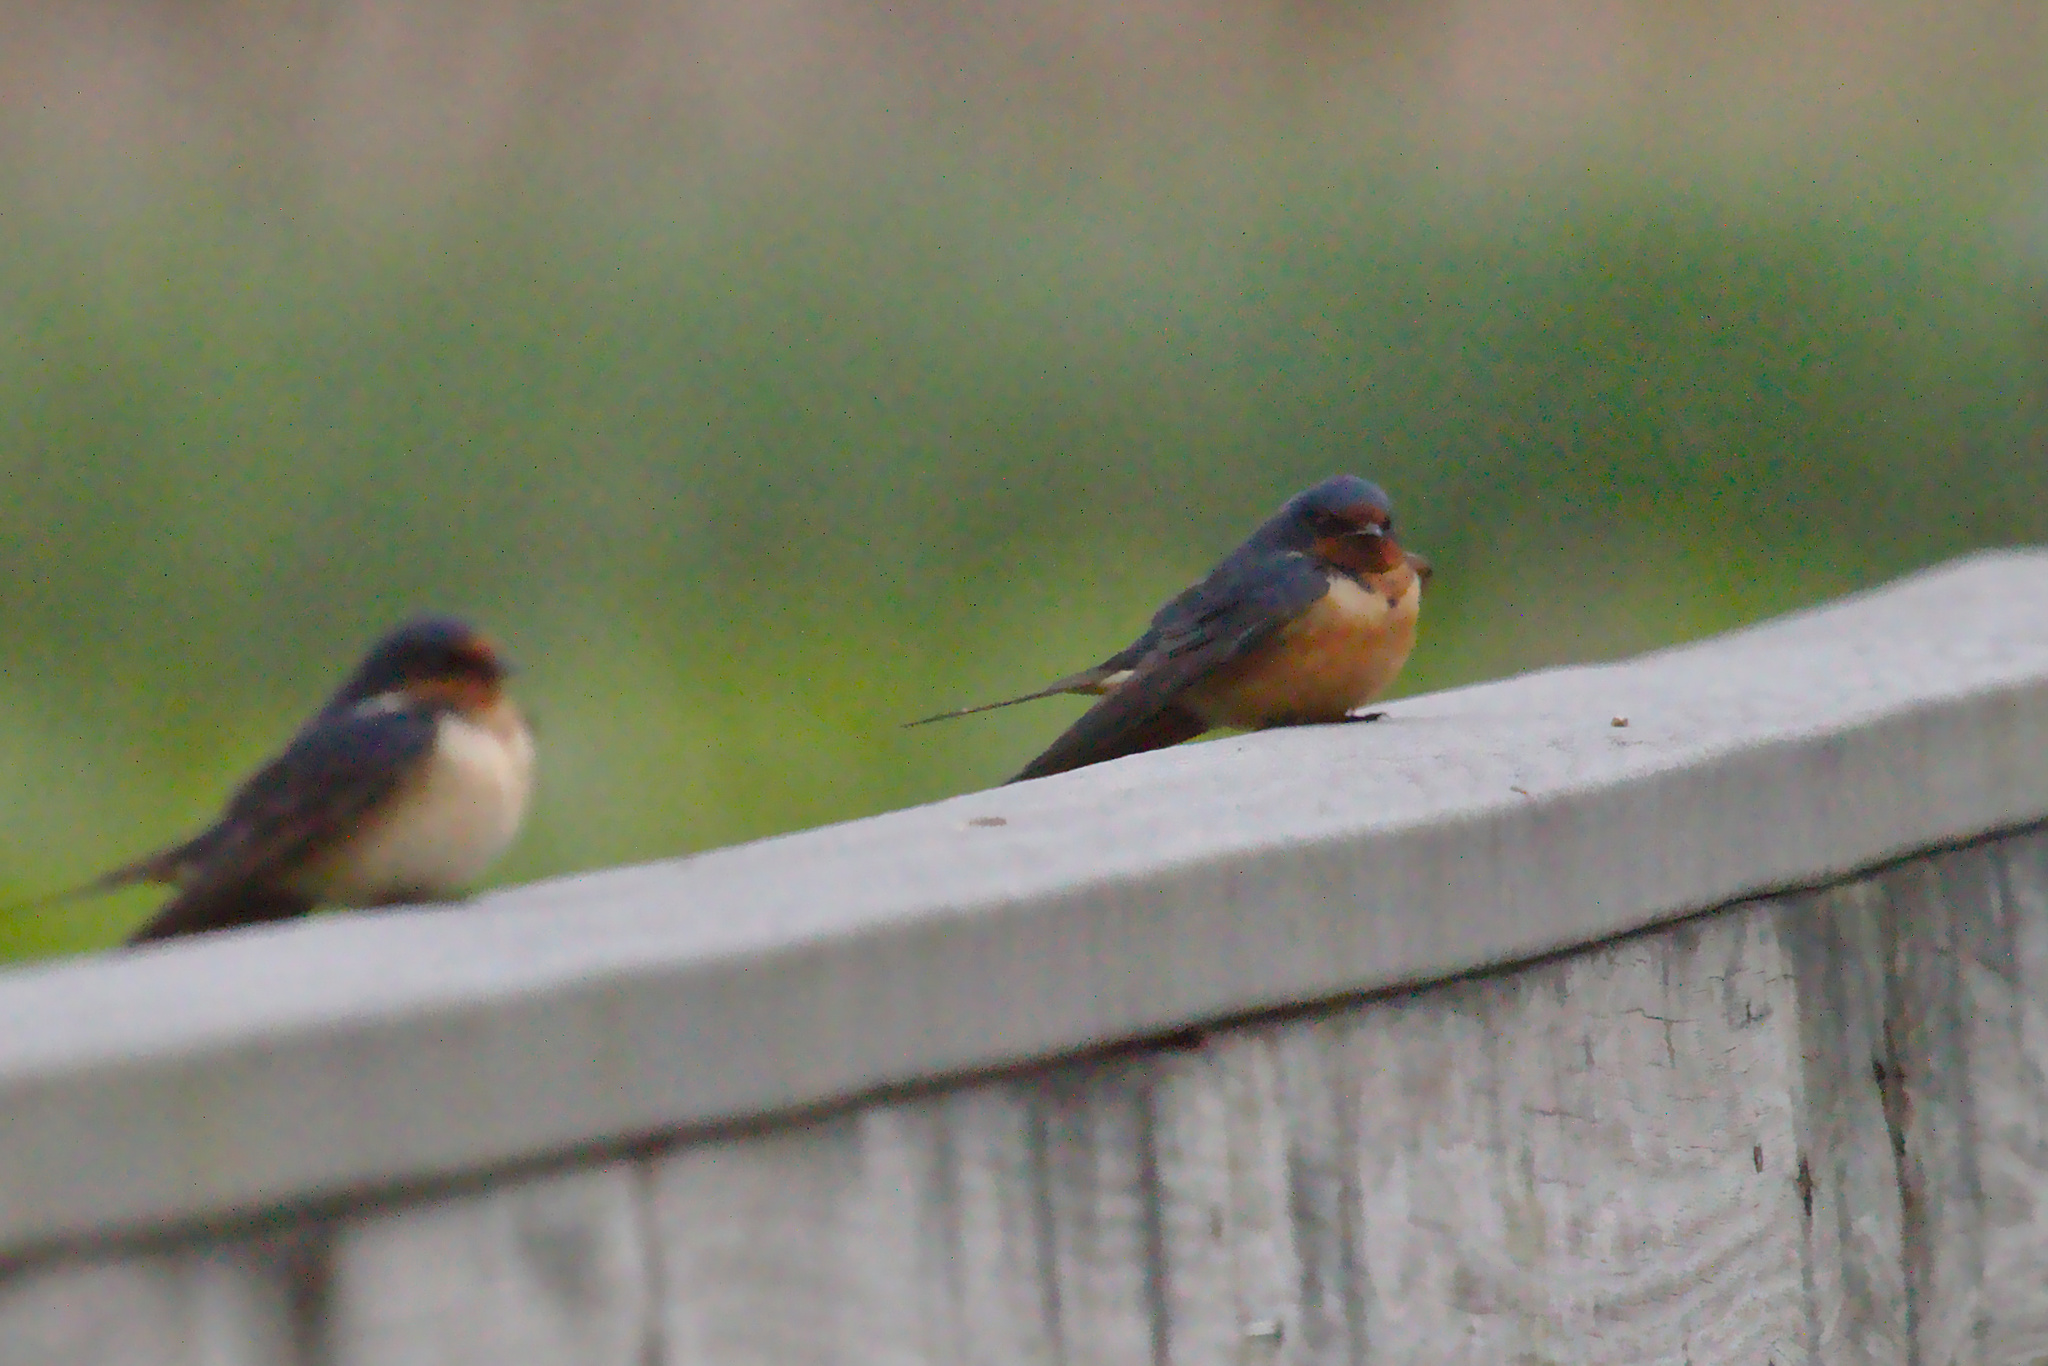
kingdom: Animalia
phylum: Chordata
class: Aves
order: Passeriformes
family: Hirundinidae
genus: Hirundo
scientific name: Hirundo rustica
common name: Barn swallow
